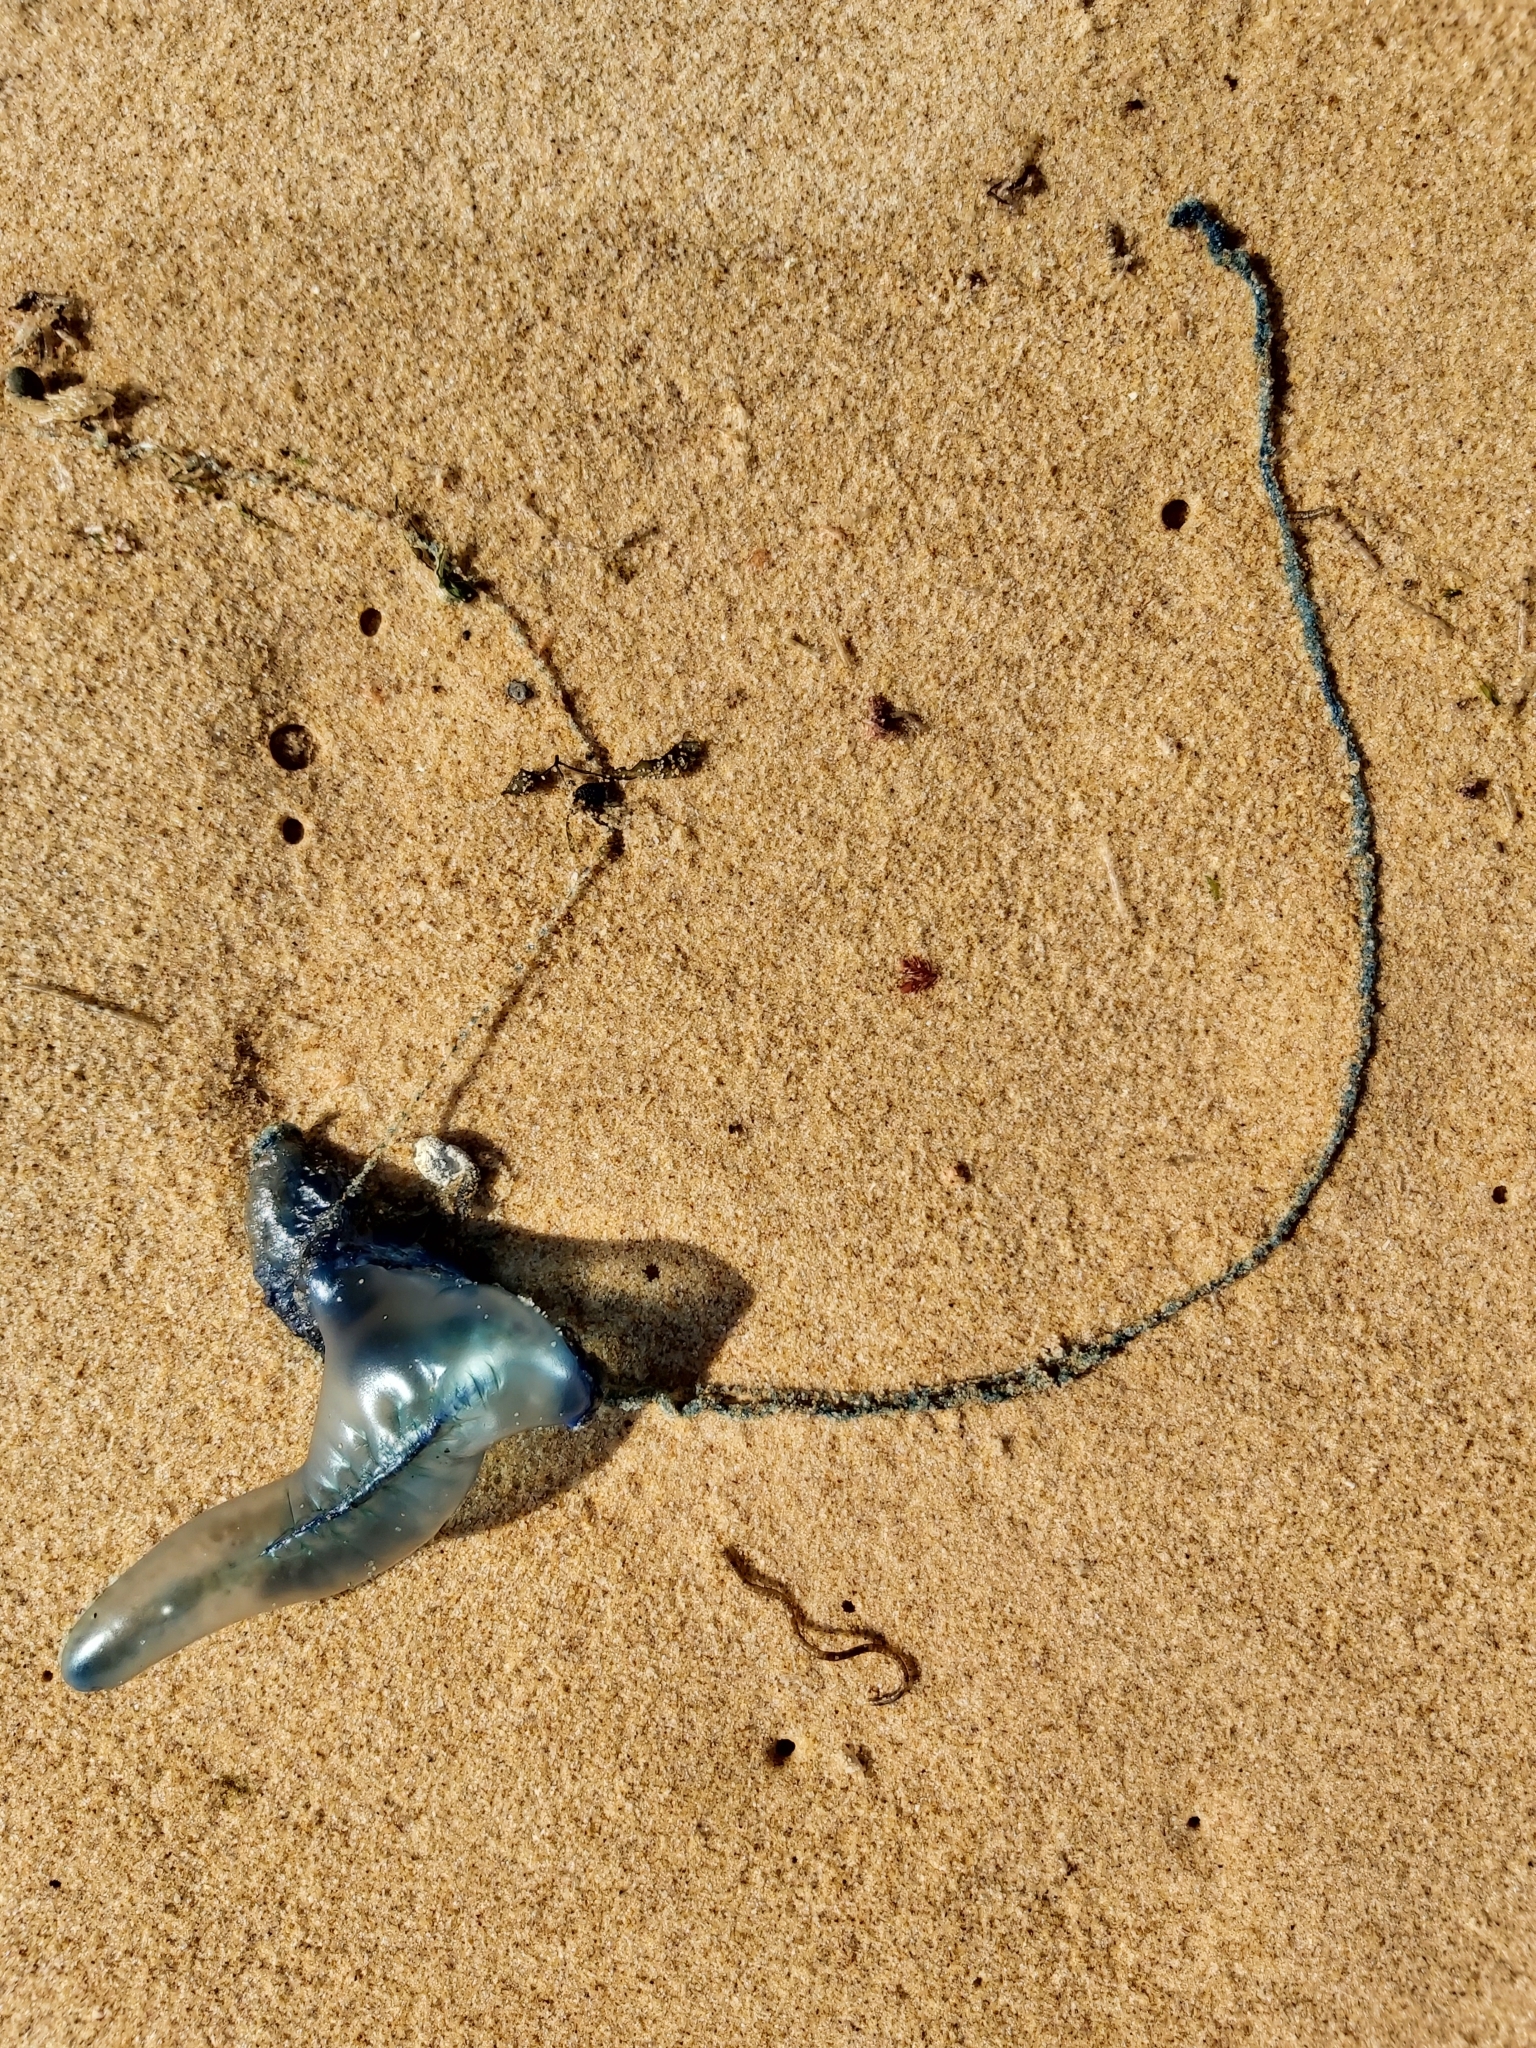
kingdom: Animalia
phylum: Cnidaria
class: Hydrozoa
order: Siphonophorae
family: Physaliidae
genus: Physalia
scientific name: Physalia physalis
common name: Portuguese man-of-war
